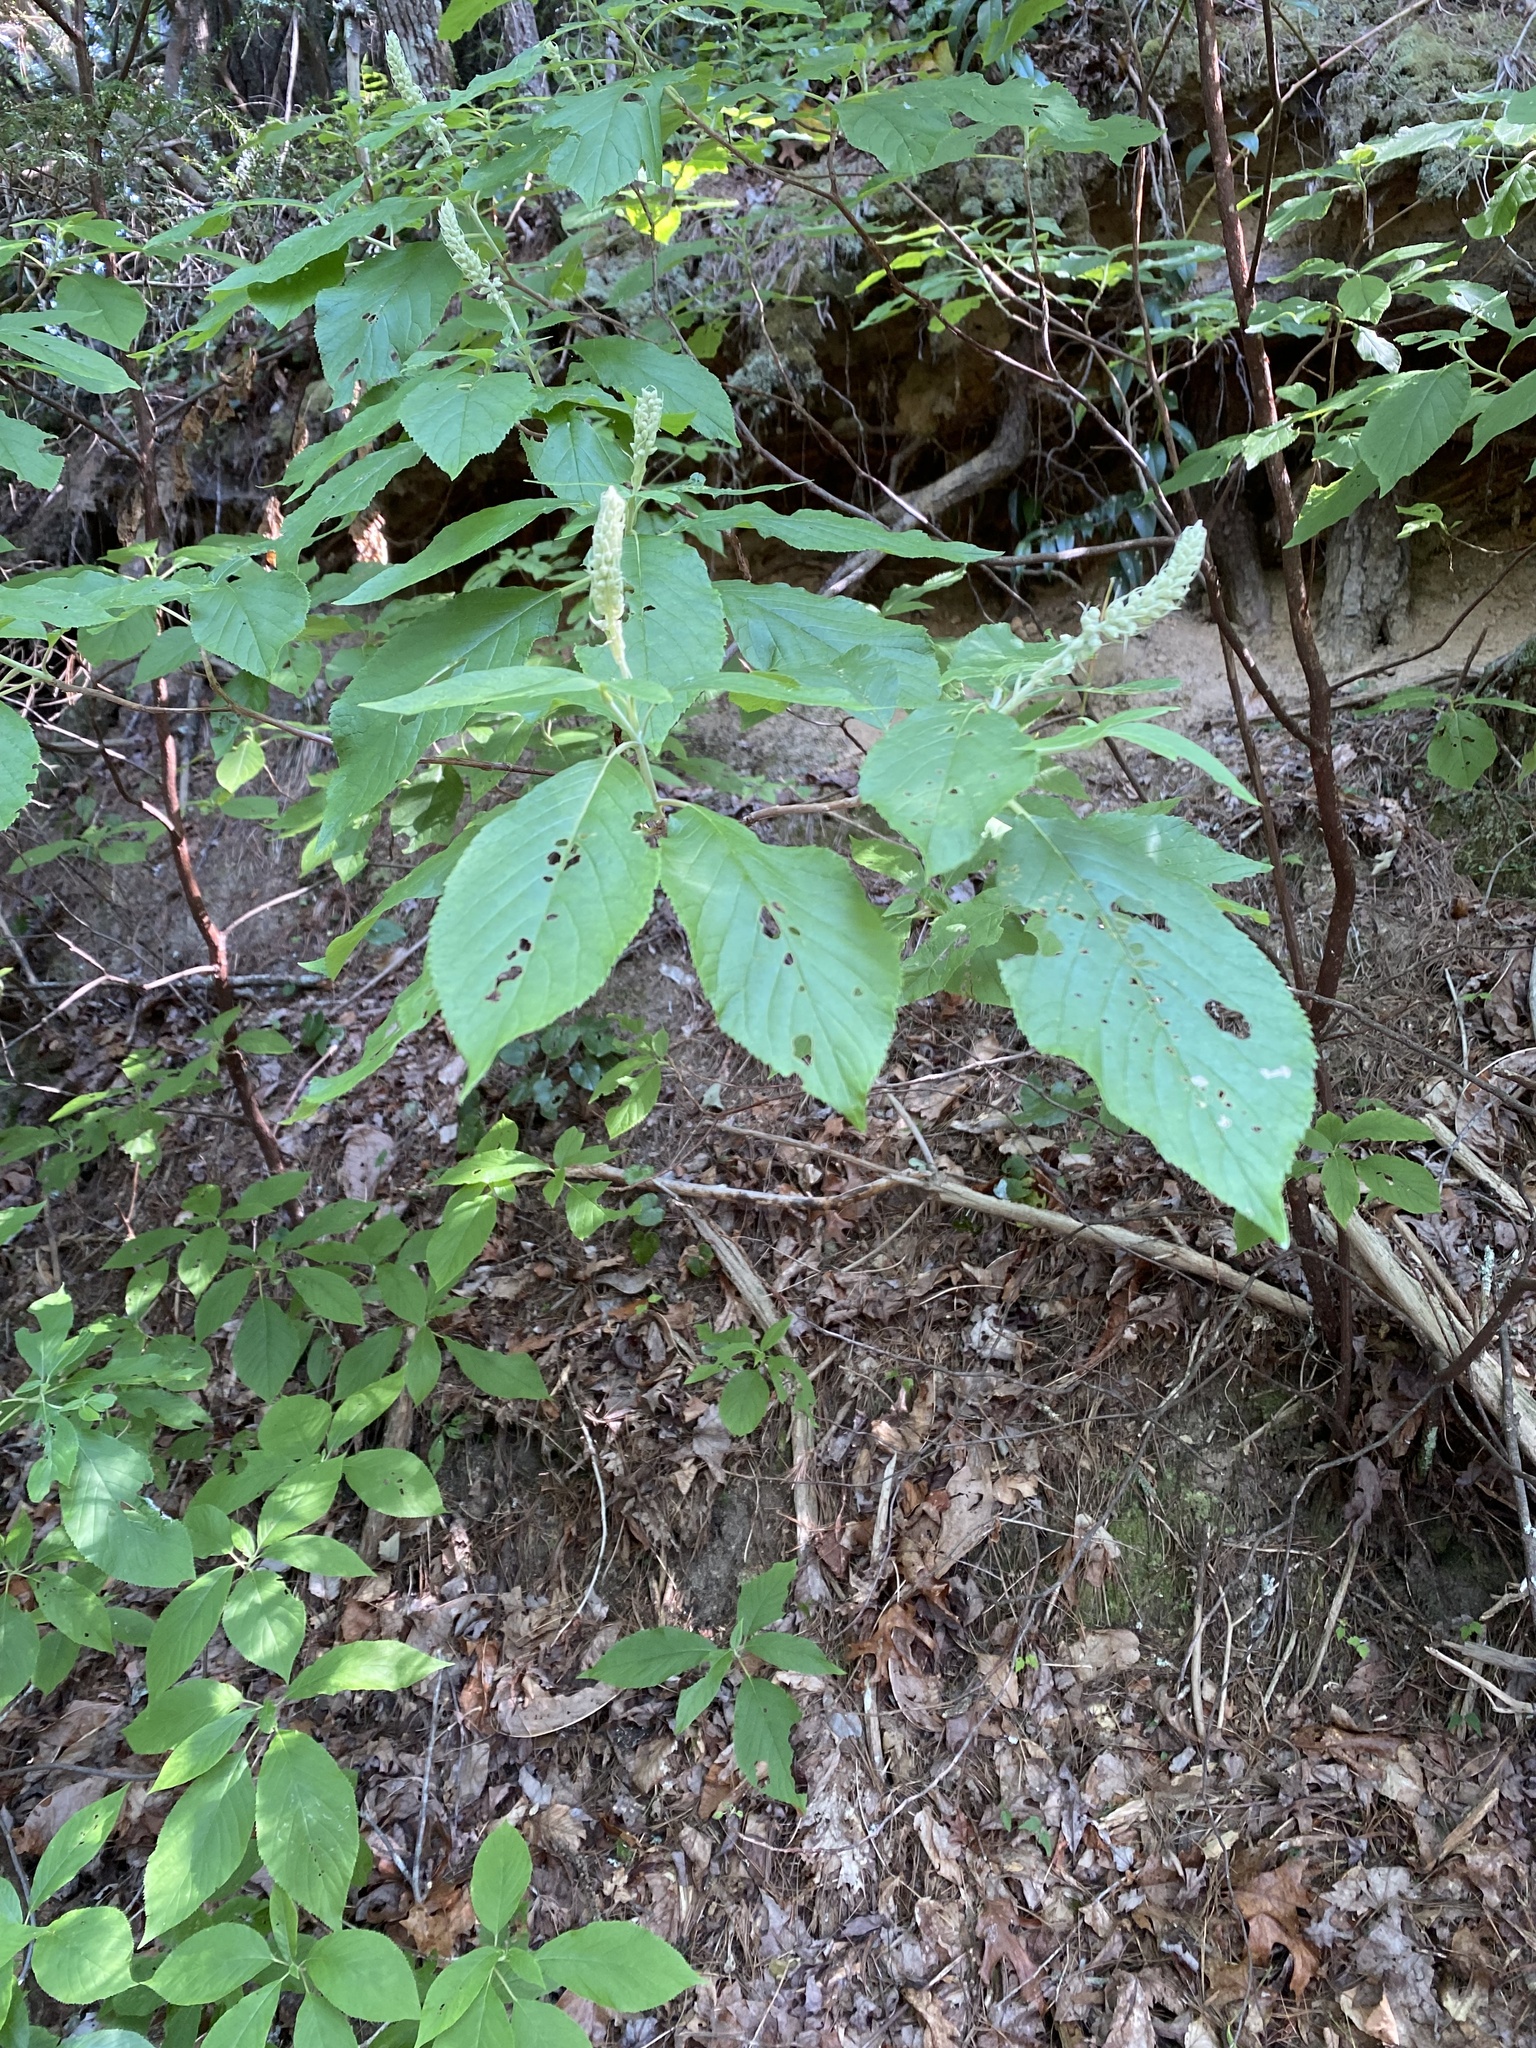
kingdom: Plantae
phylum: Tracheophyta
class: Magnoliopsida
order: Ericales
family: Clethraceae
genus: Clethra
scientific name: Clethra acuminata
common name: Mountain sweet pepperbush
